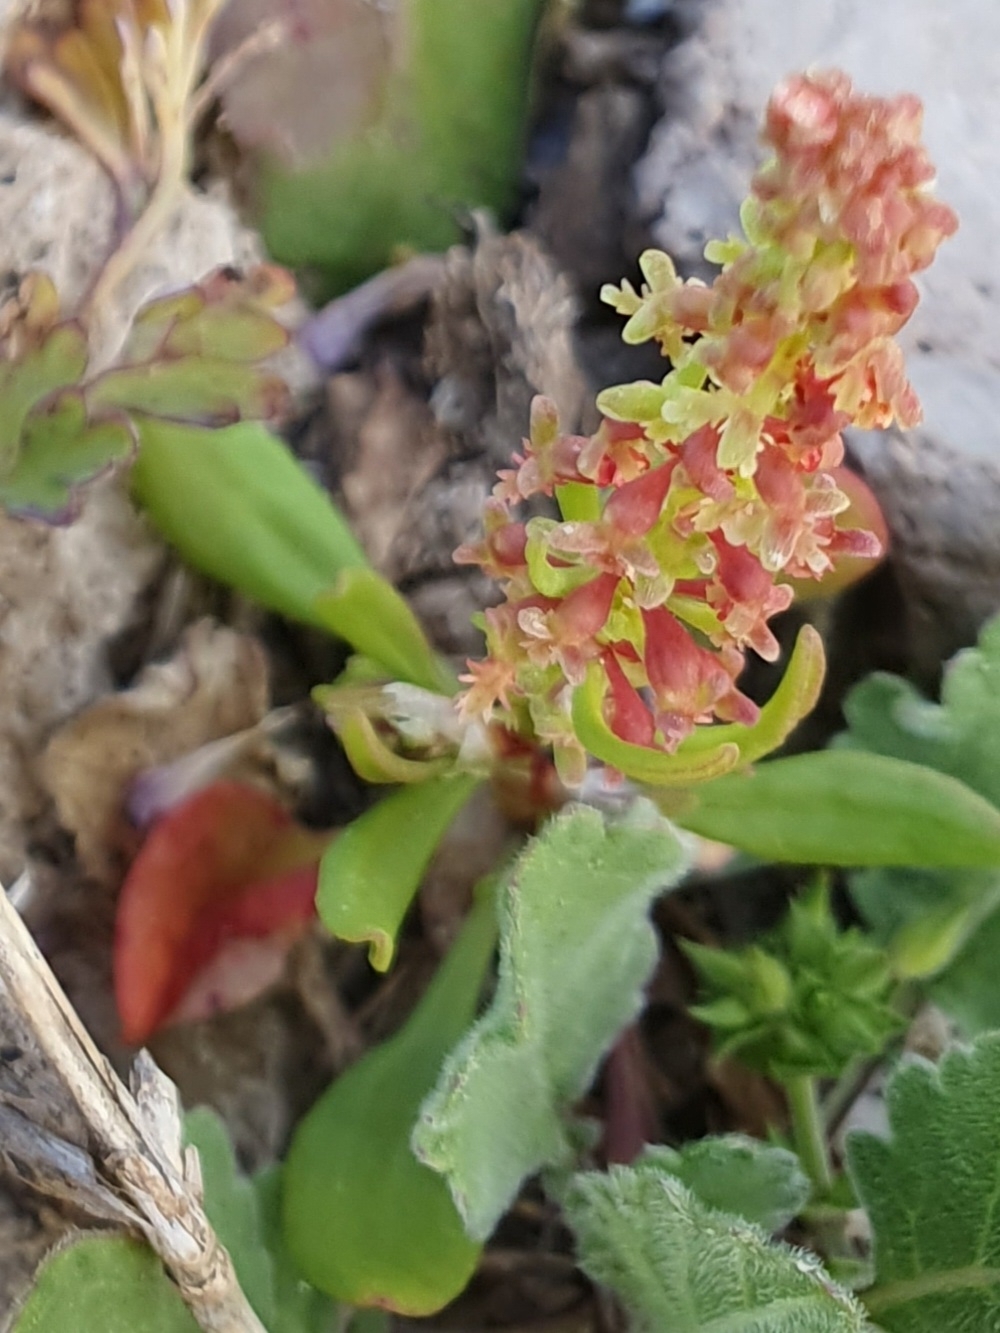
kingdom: Plantae
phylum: Tracheophyta
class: Magnoliopsida
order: Caryophyllales
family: Polygonaceae
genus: Rumex
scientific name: Rumex bucephalophorus
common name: Red dock
